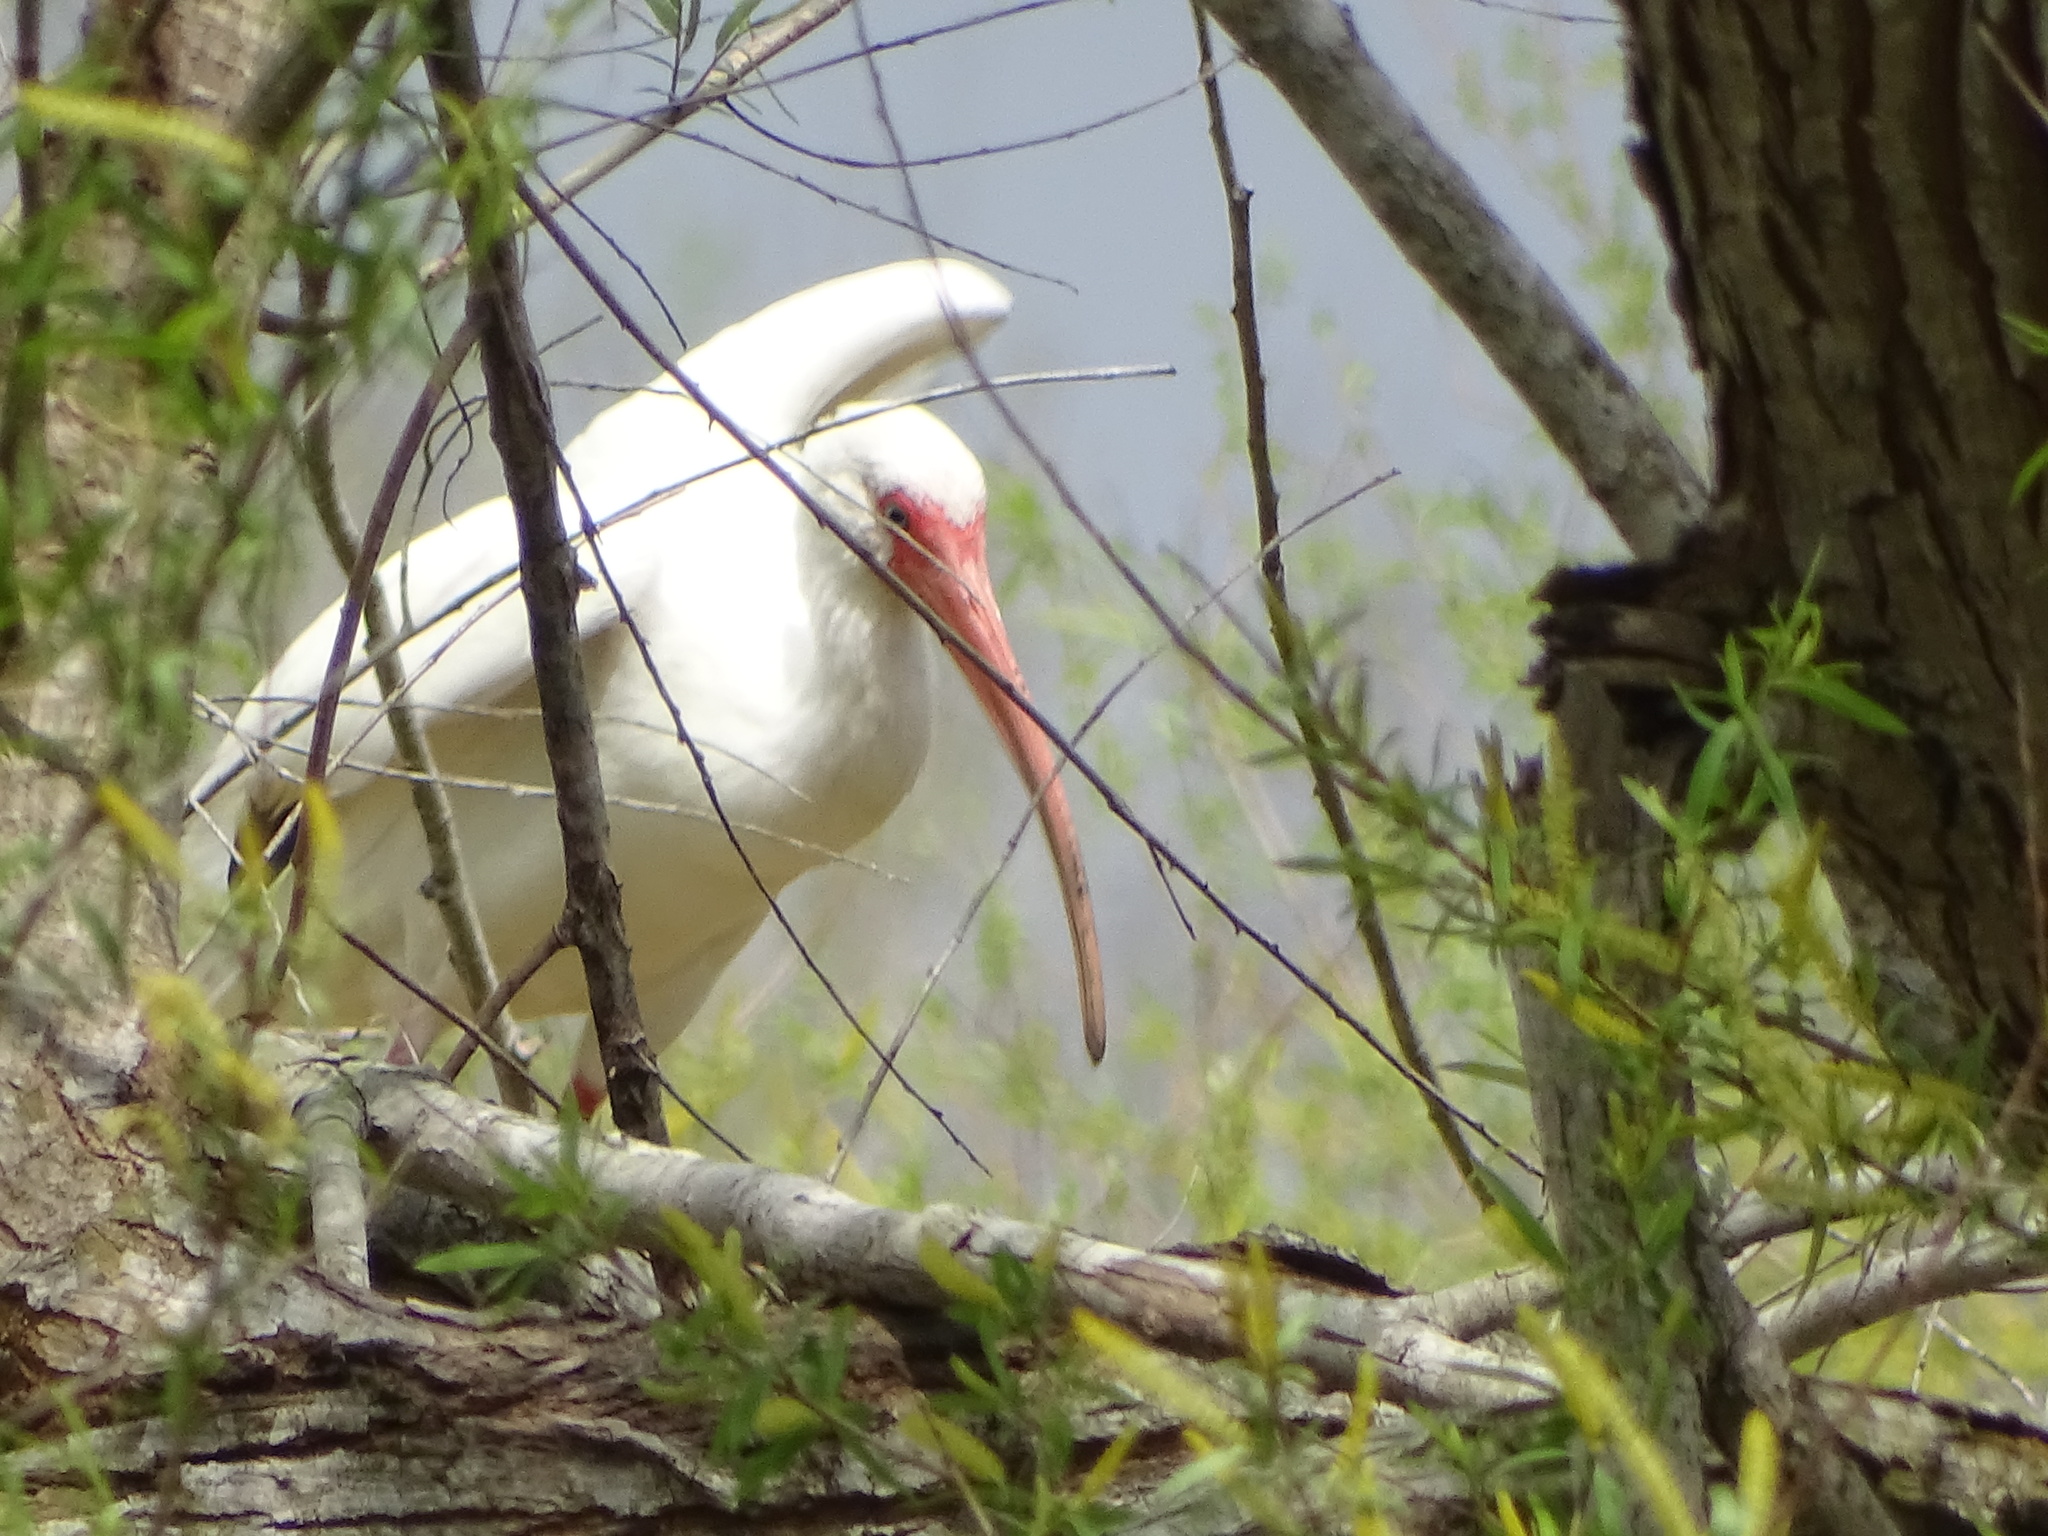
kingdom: Animalia
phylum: Chordata
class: Aves
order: Pelecaniformes
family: Threskiornithidae
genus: Eudocimus
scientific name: Eudocimus albus
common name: White ibis
